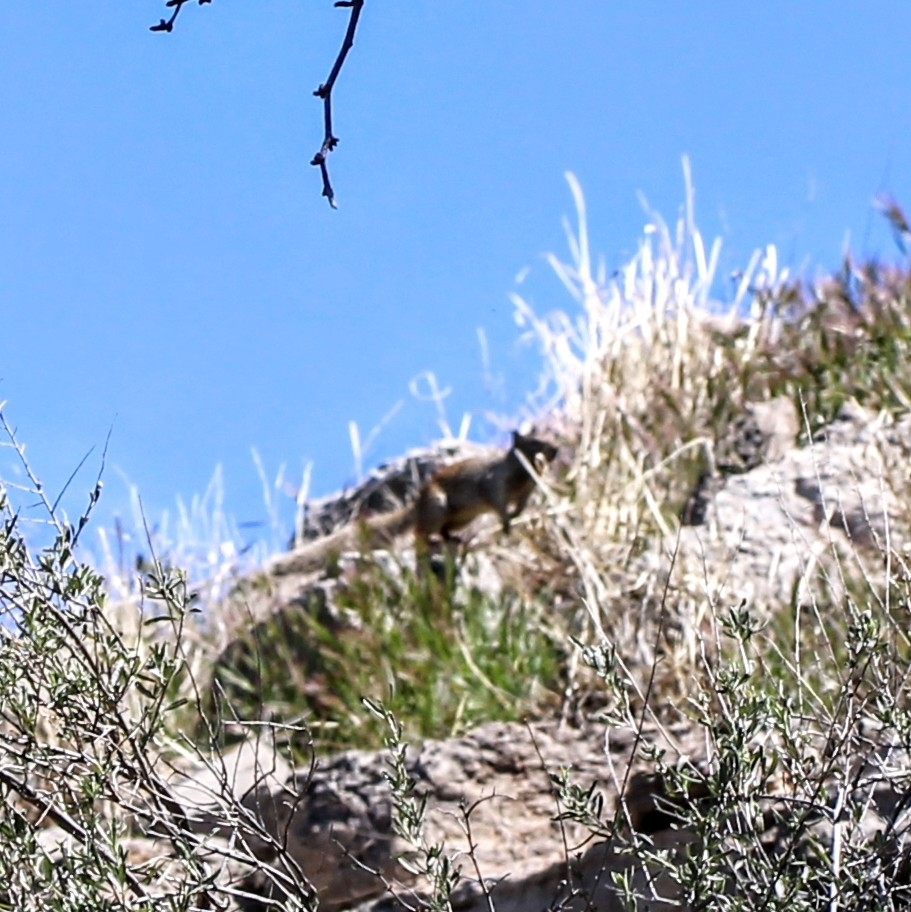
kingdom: Animalia
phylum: Chordata
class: Mammalia
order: Rodentia
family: Sciuridae
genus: Otospermophilus
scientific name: Otospermophilus variegatus
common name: Rock squirrel
